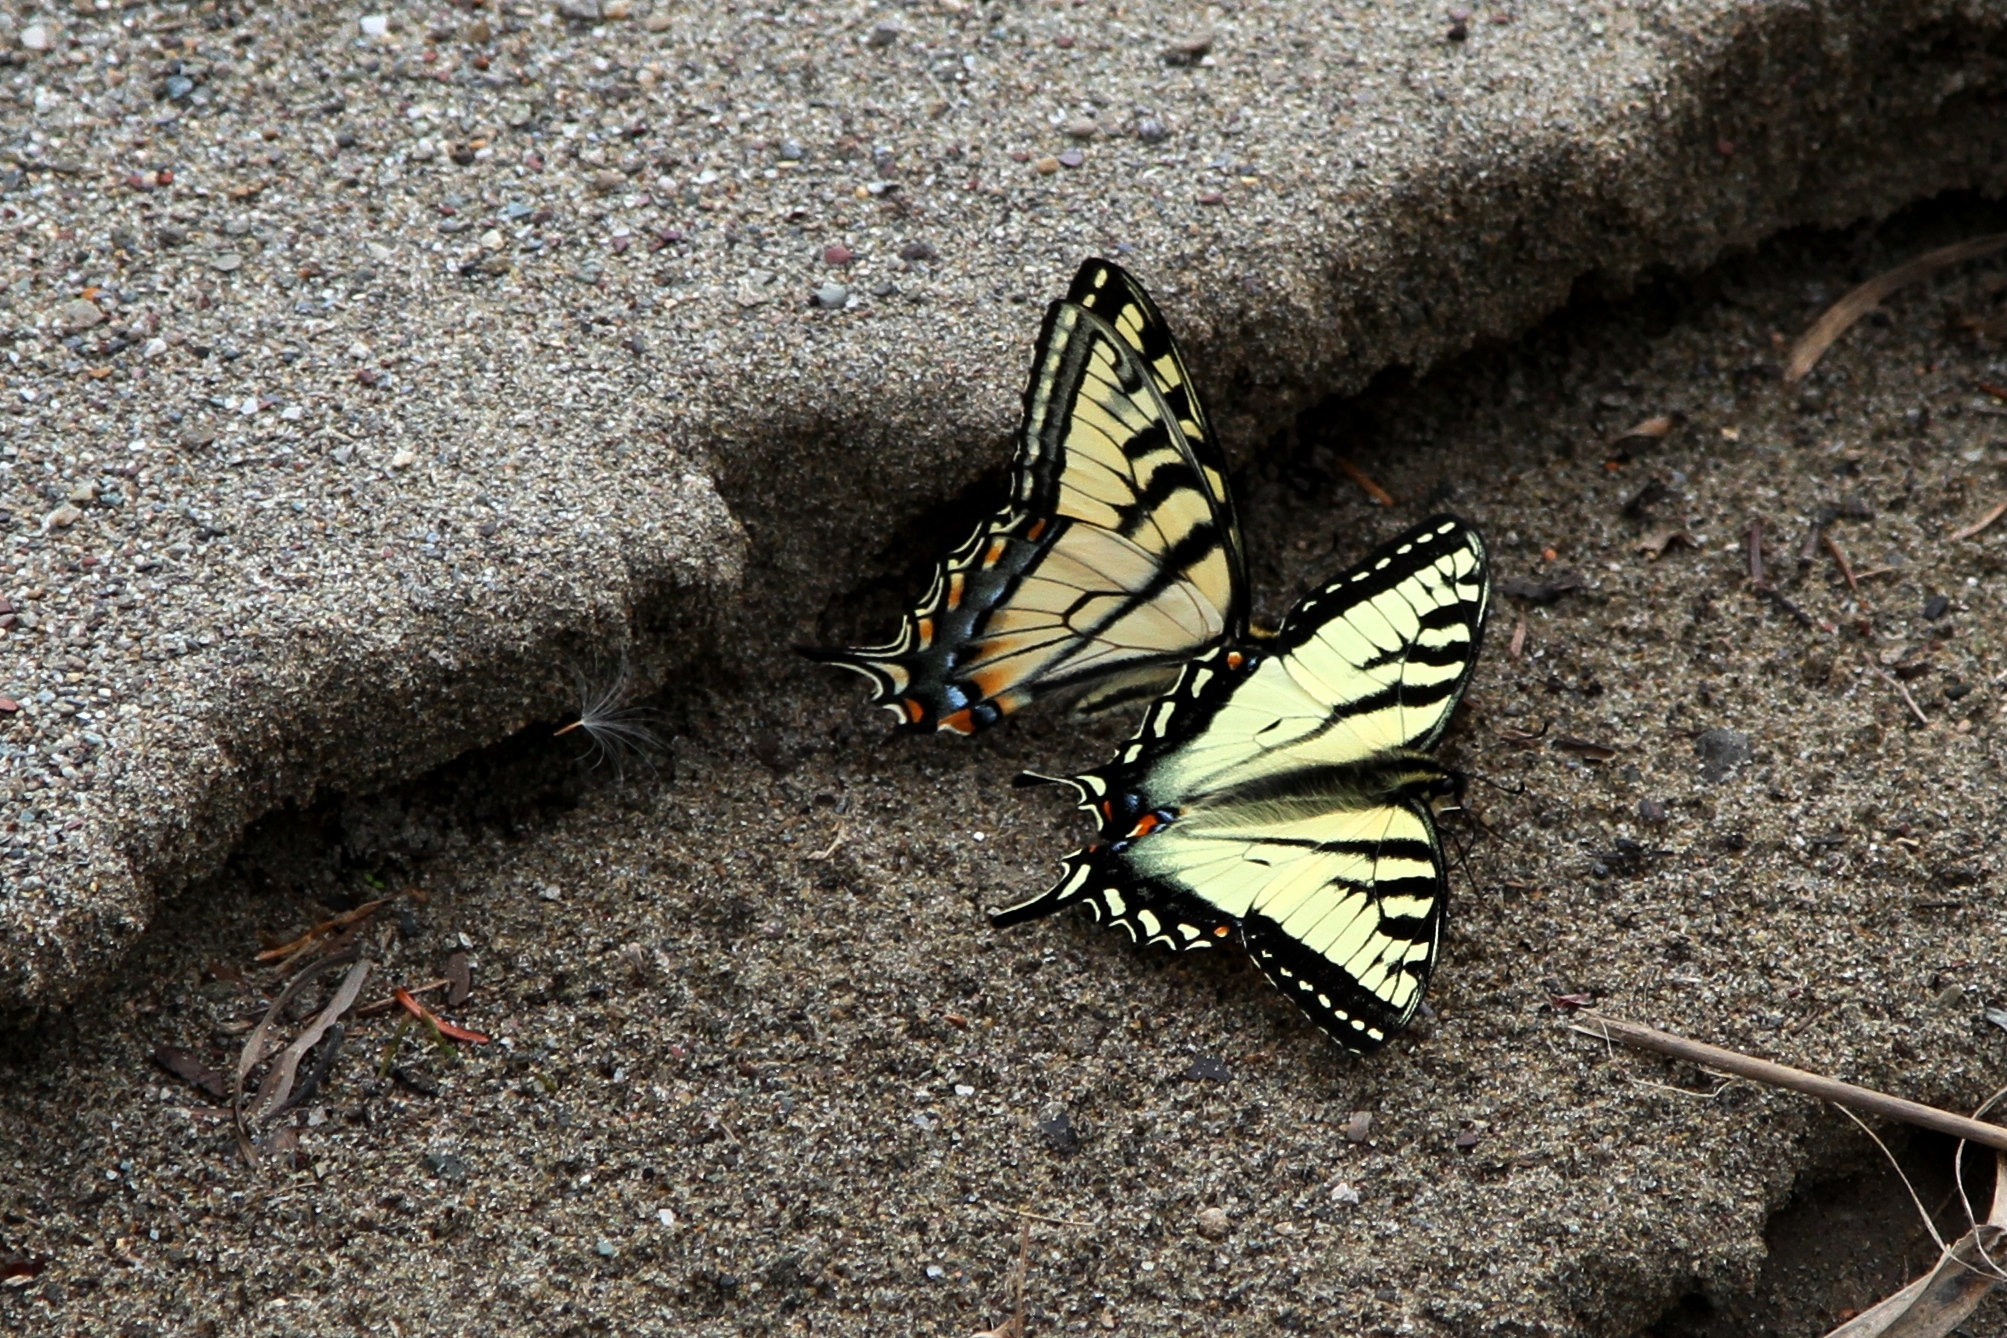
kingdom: Animalia
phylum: Arthropoda
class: Insecta
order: Lepidoptera
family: Papilionidae
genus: Papilio
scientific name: Papilio canadensis
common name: Canadian tiger swallowtail
